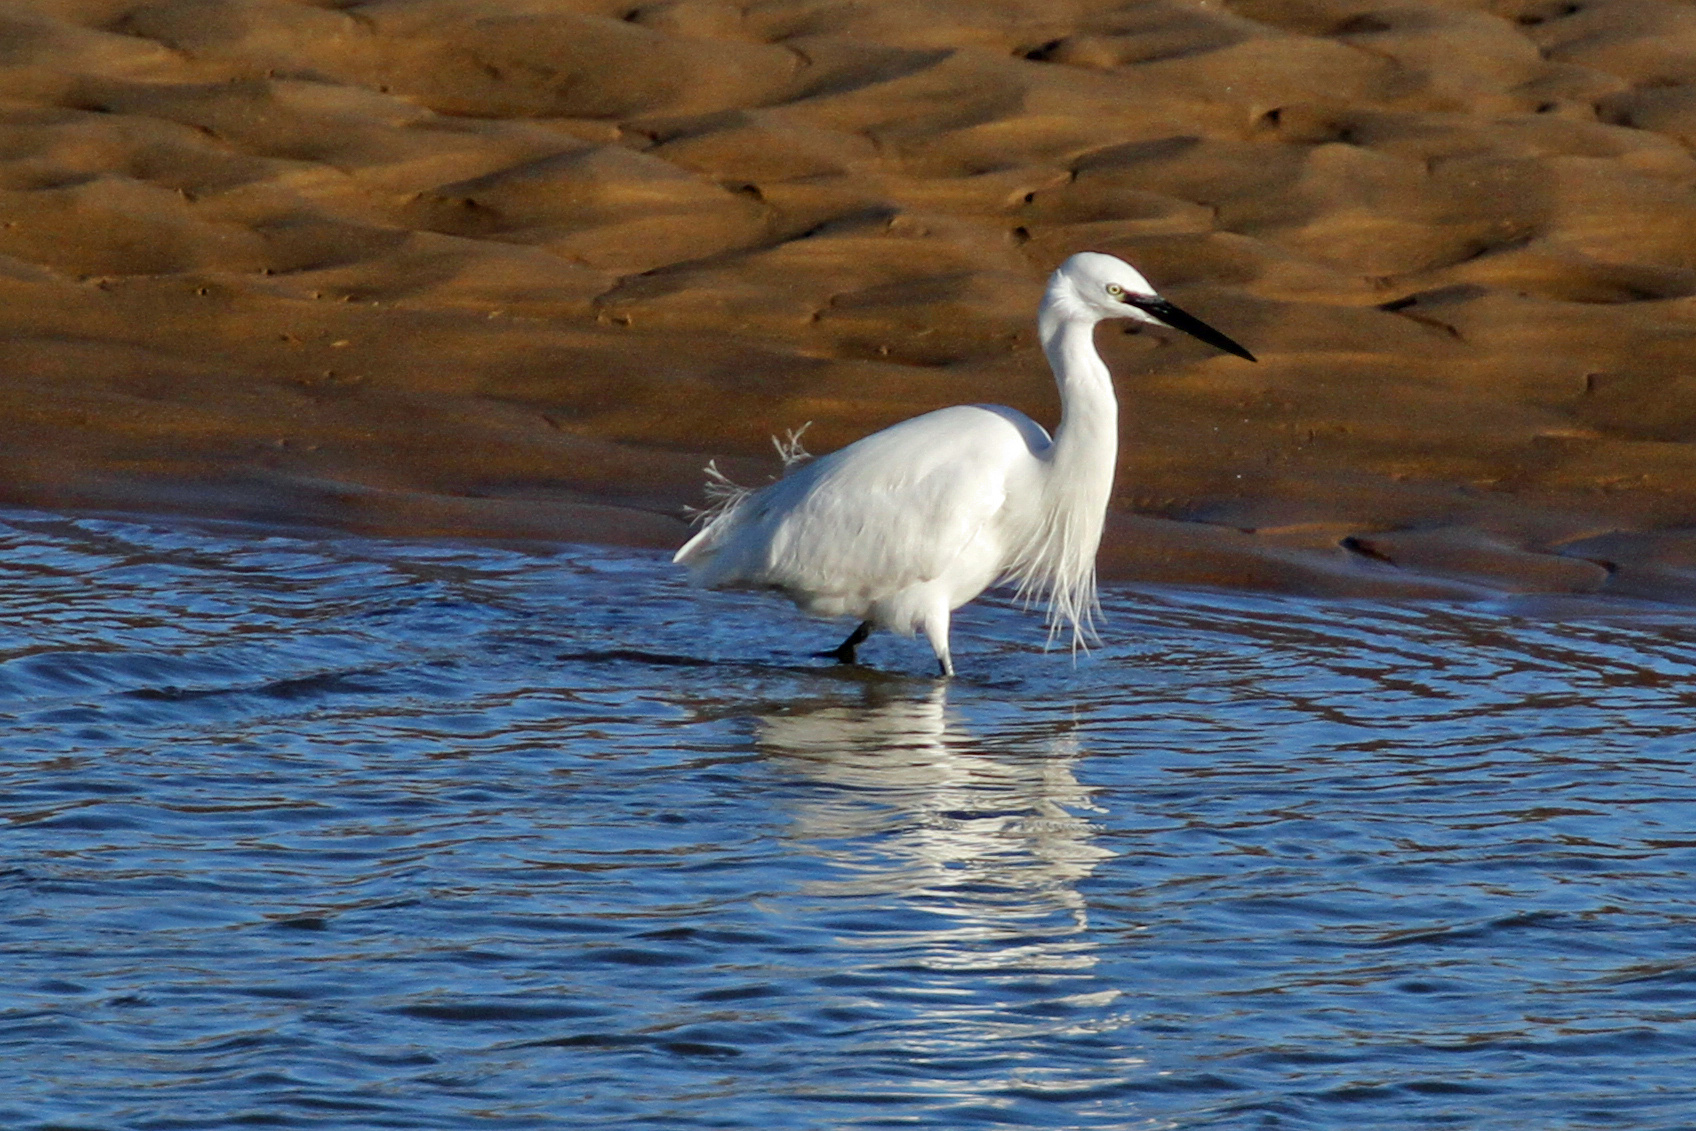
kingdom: Animalia
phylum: Chordata
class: Aves
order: Pelecaniformes
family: Ardeidae
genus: Egretta
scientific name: Egretta garzetta
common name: Little egret
